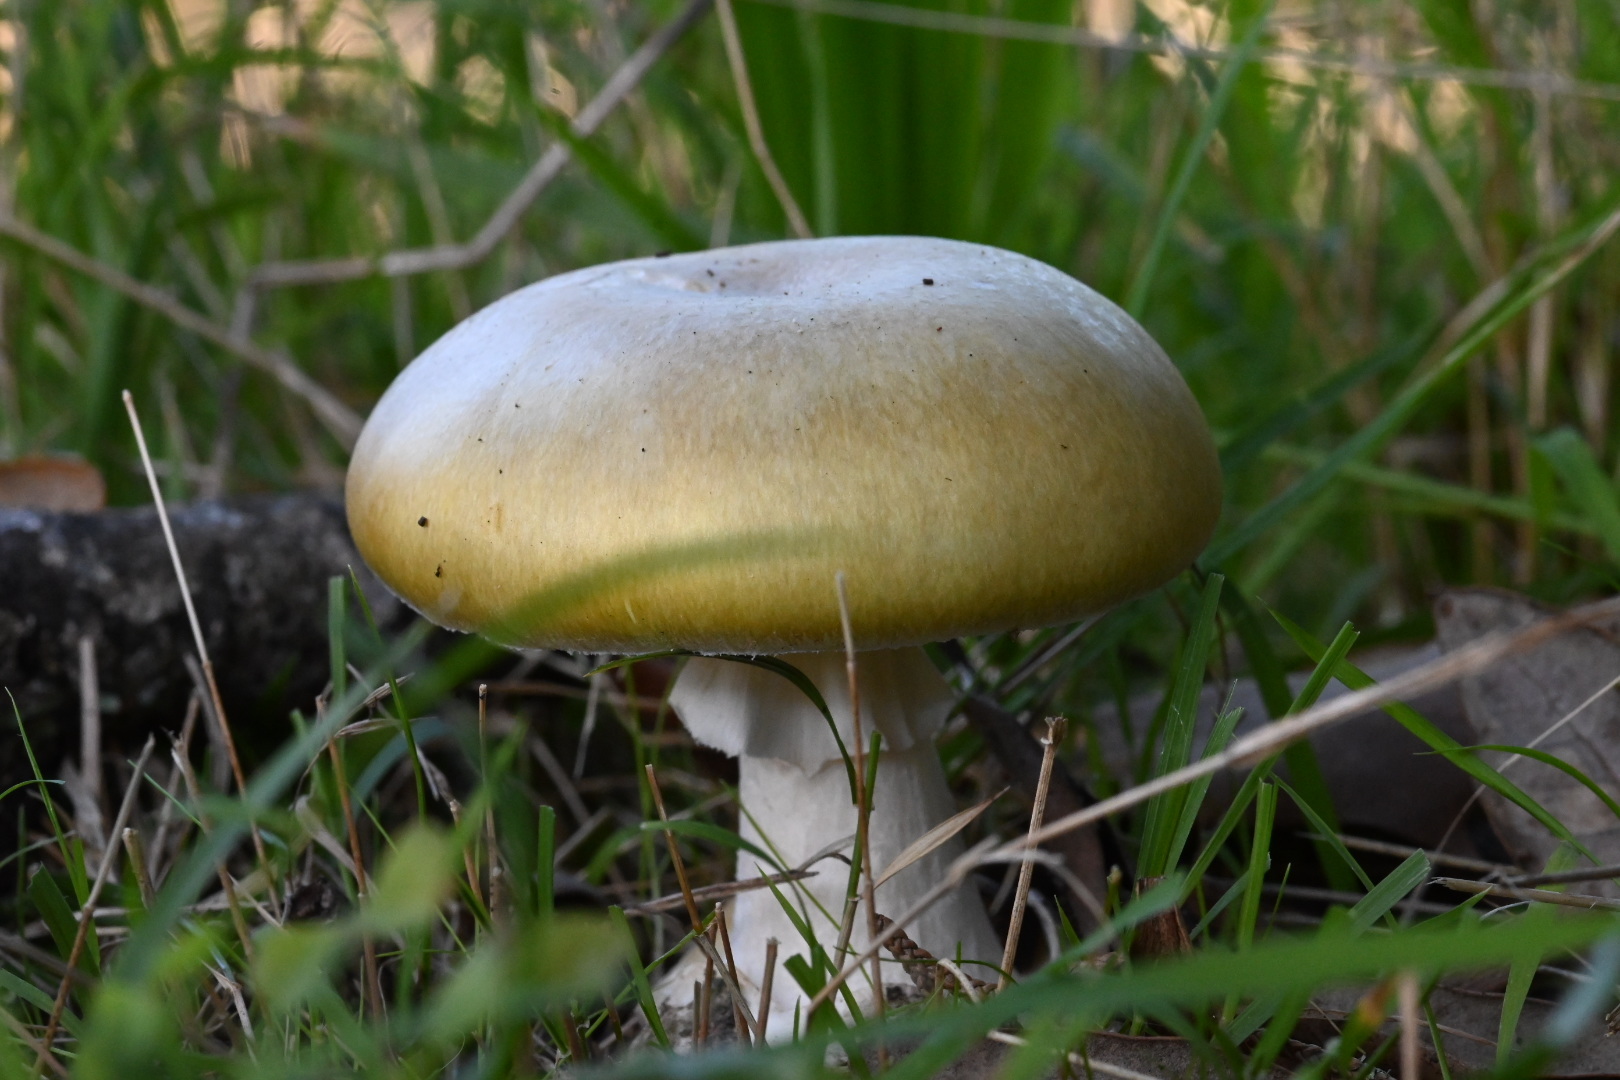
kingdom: Fungi
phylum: Basidiomycota
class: Agaricomycetes
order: Agaricales
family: Amanitaceae
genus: Amanita
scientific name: Amanita phalloides
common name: Death cap
